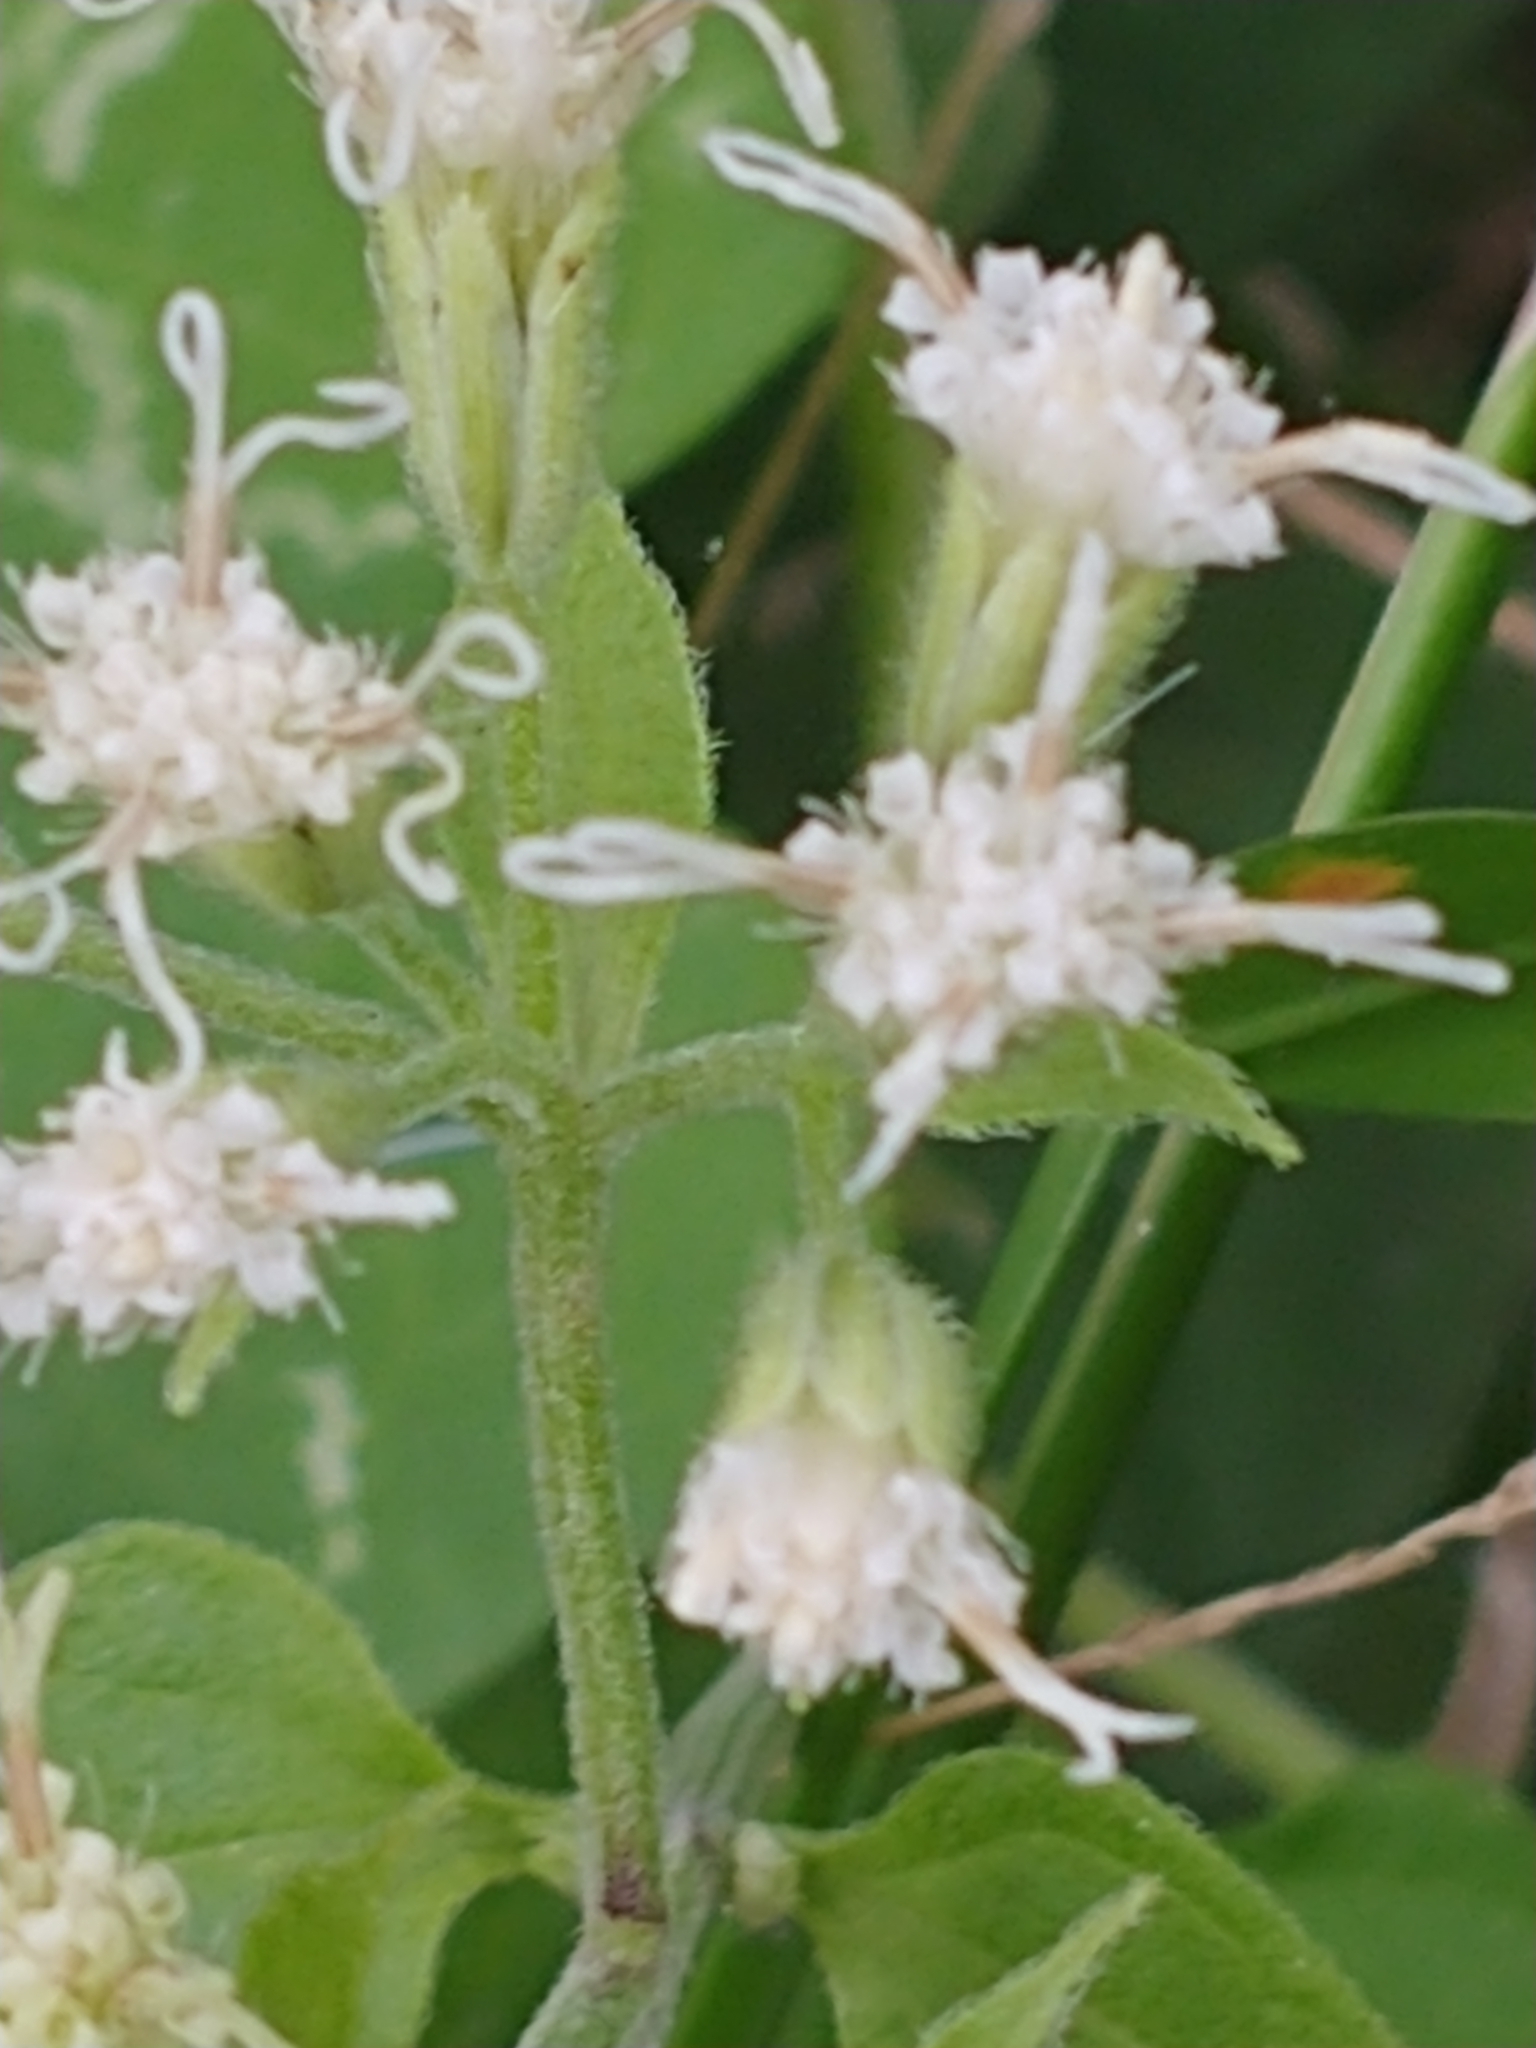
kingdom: Plantae
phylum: Tracheophyta
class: Magnoliopsida
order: Asterales
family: Asteraceae
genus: Mikania
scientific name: Mikania cordifolia
